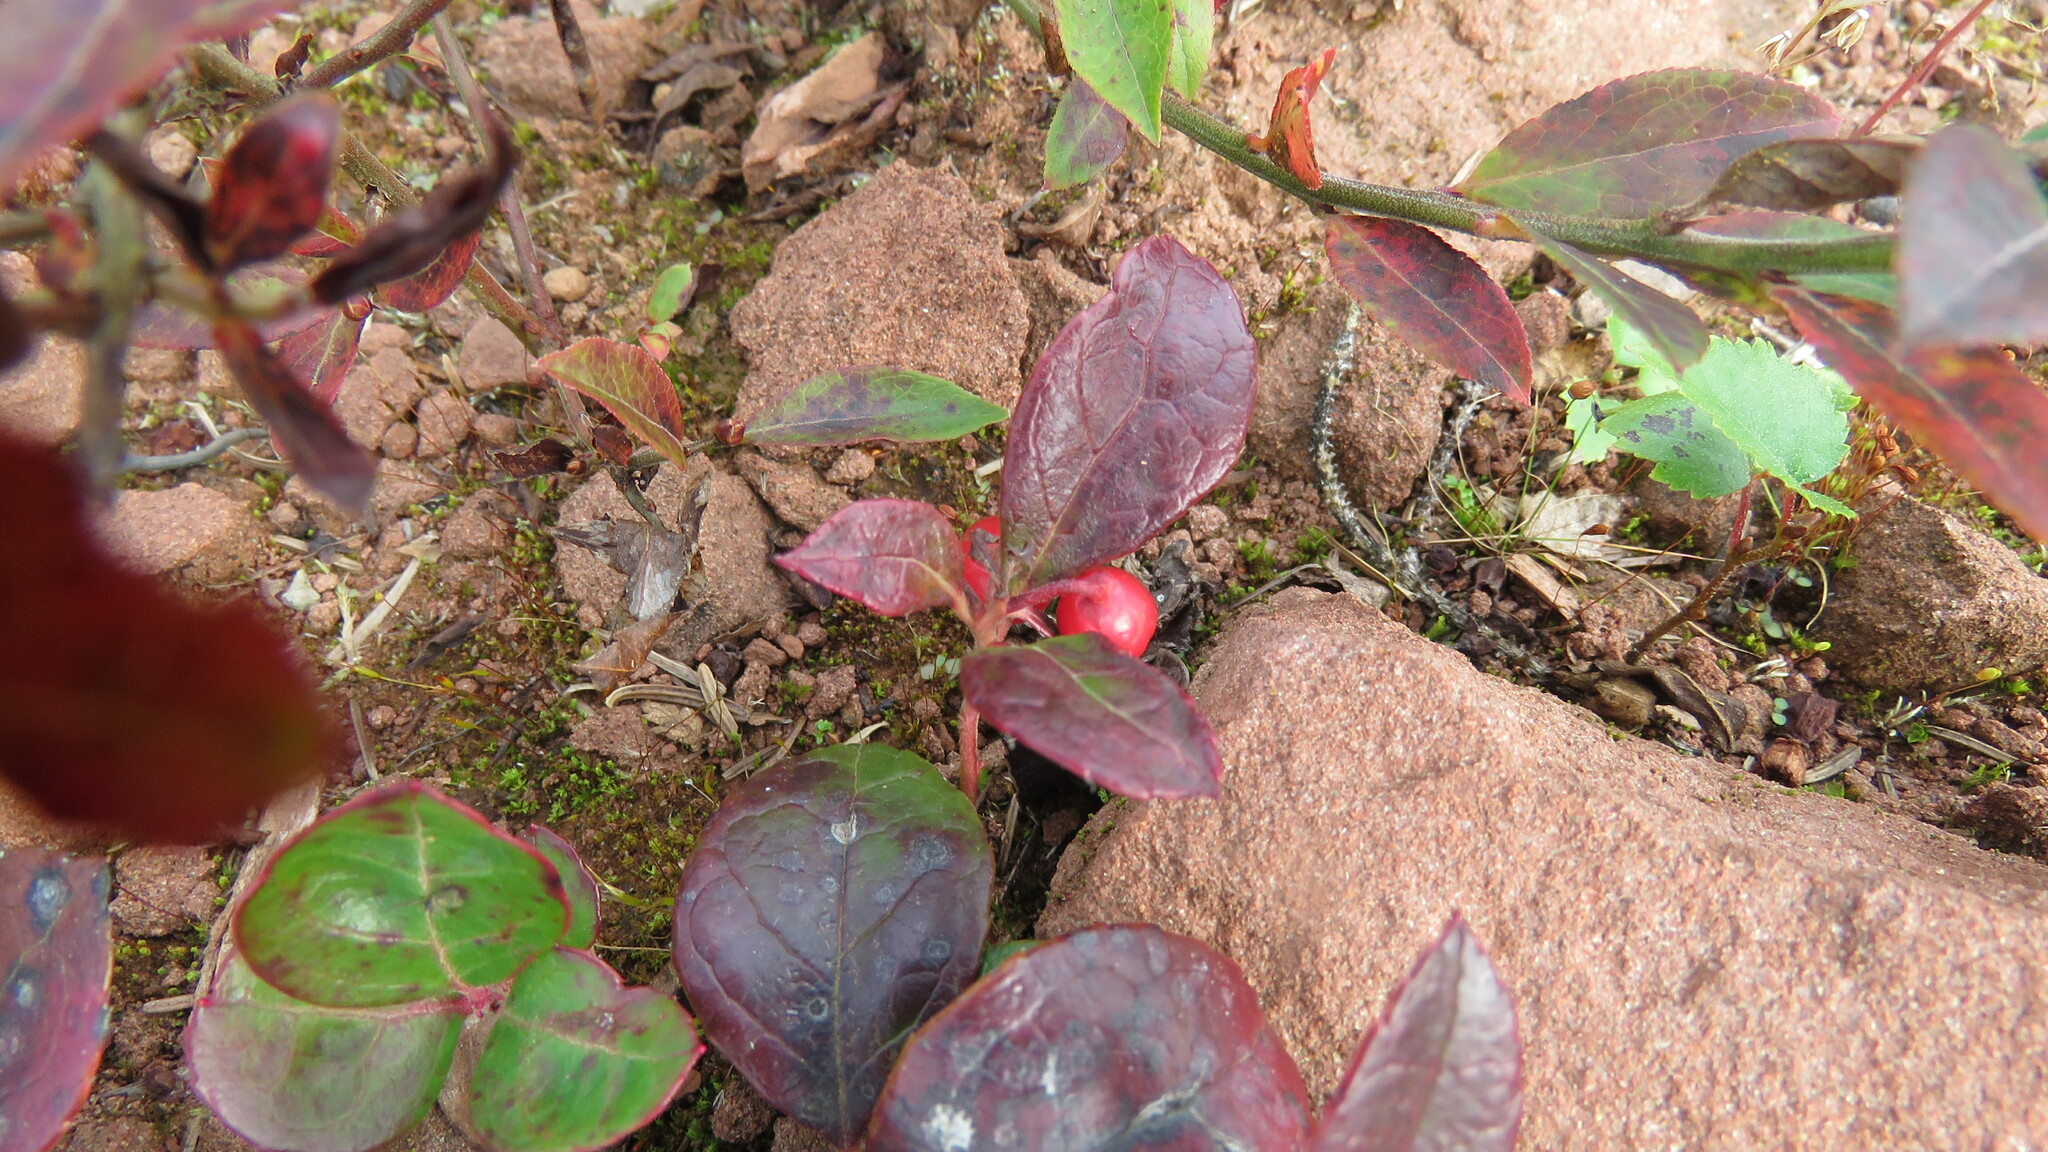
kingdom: Plantae
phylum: Tracheophyta
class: Magnoliopsida
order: Ericales
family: Ericaceae
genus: Gaultheria
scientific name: Gaultheria procumbens
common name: Checkerberry
